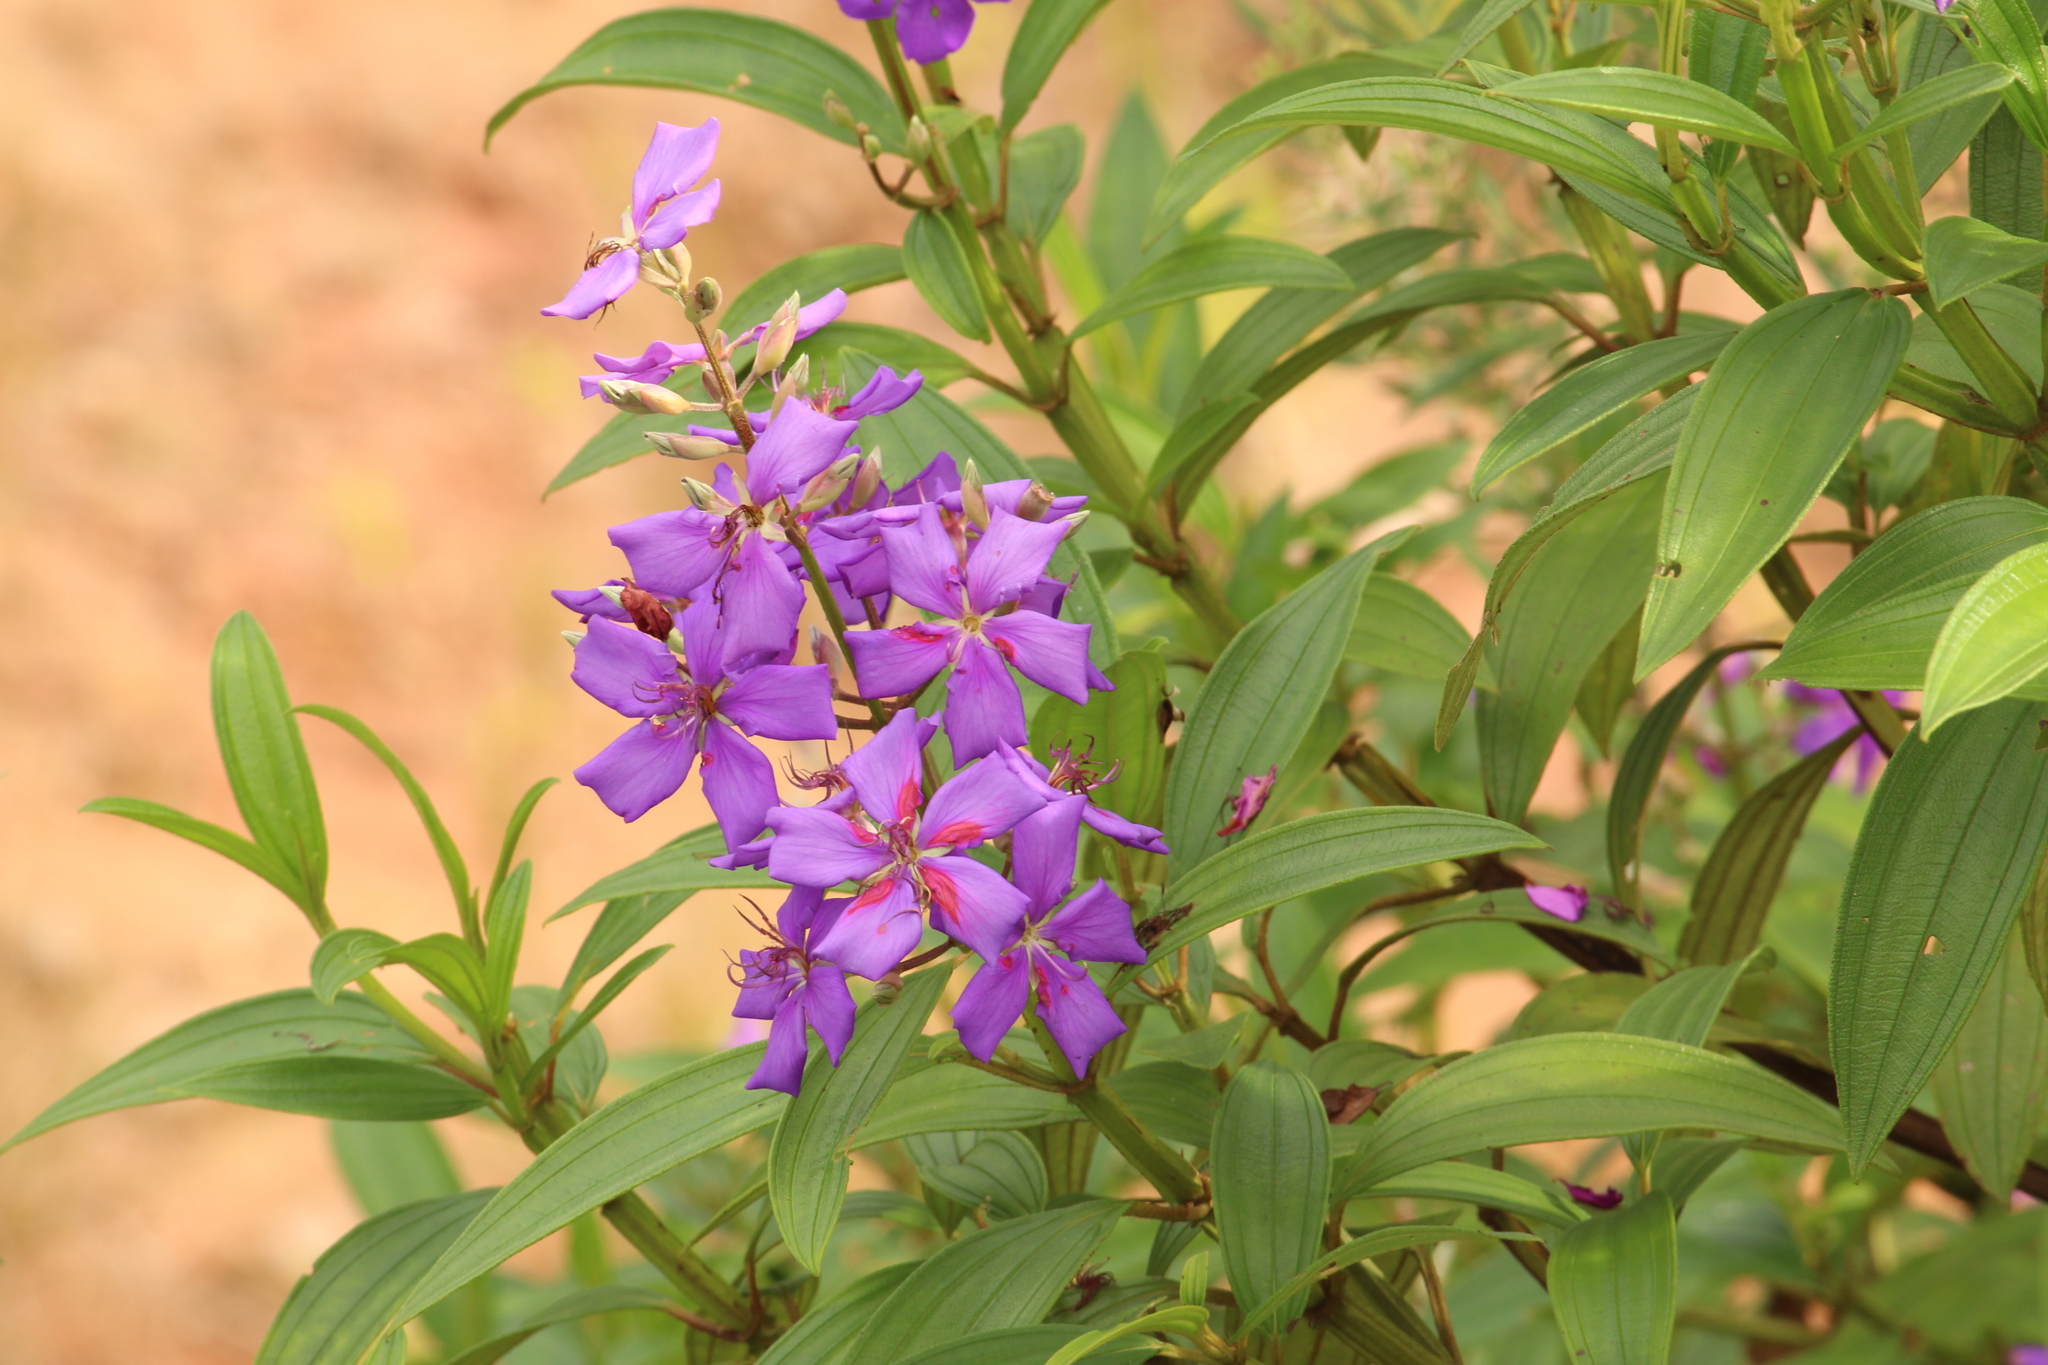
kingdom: Plantae
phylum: Tracheophyta
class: Magnoliopsida
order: Myrtales
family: Melastomataceae
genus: Pleroma
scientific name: Pleroma granulosum
